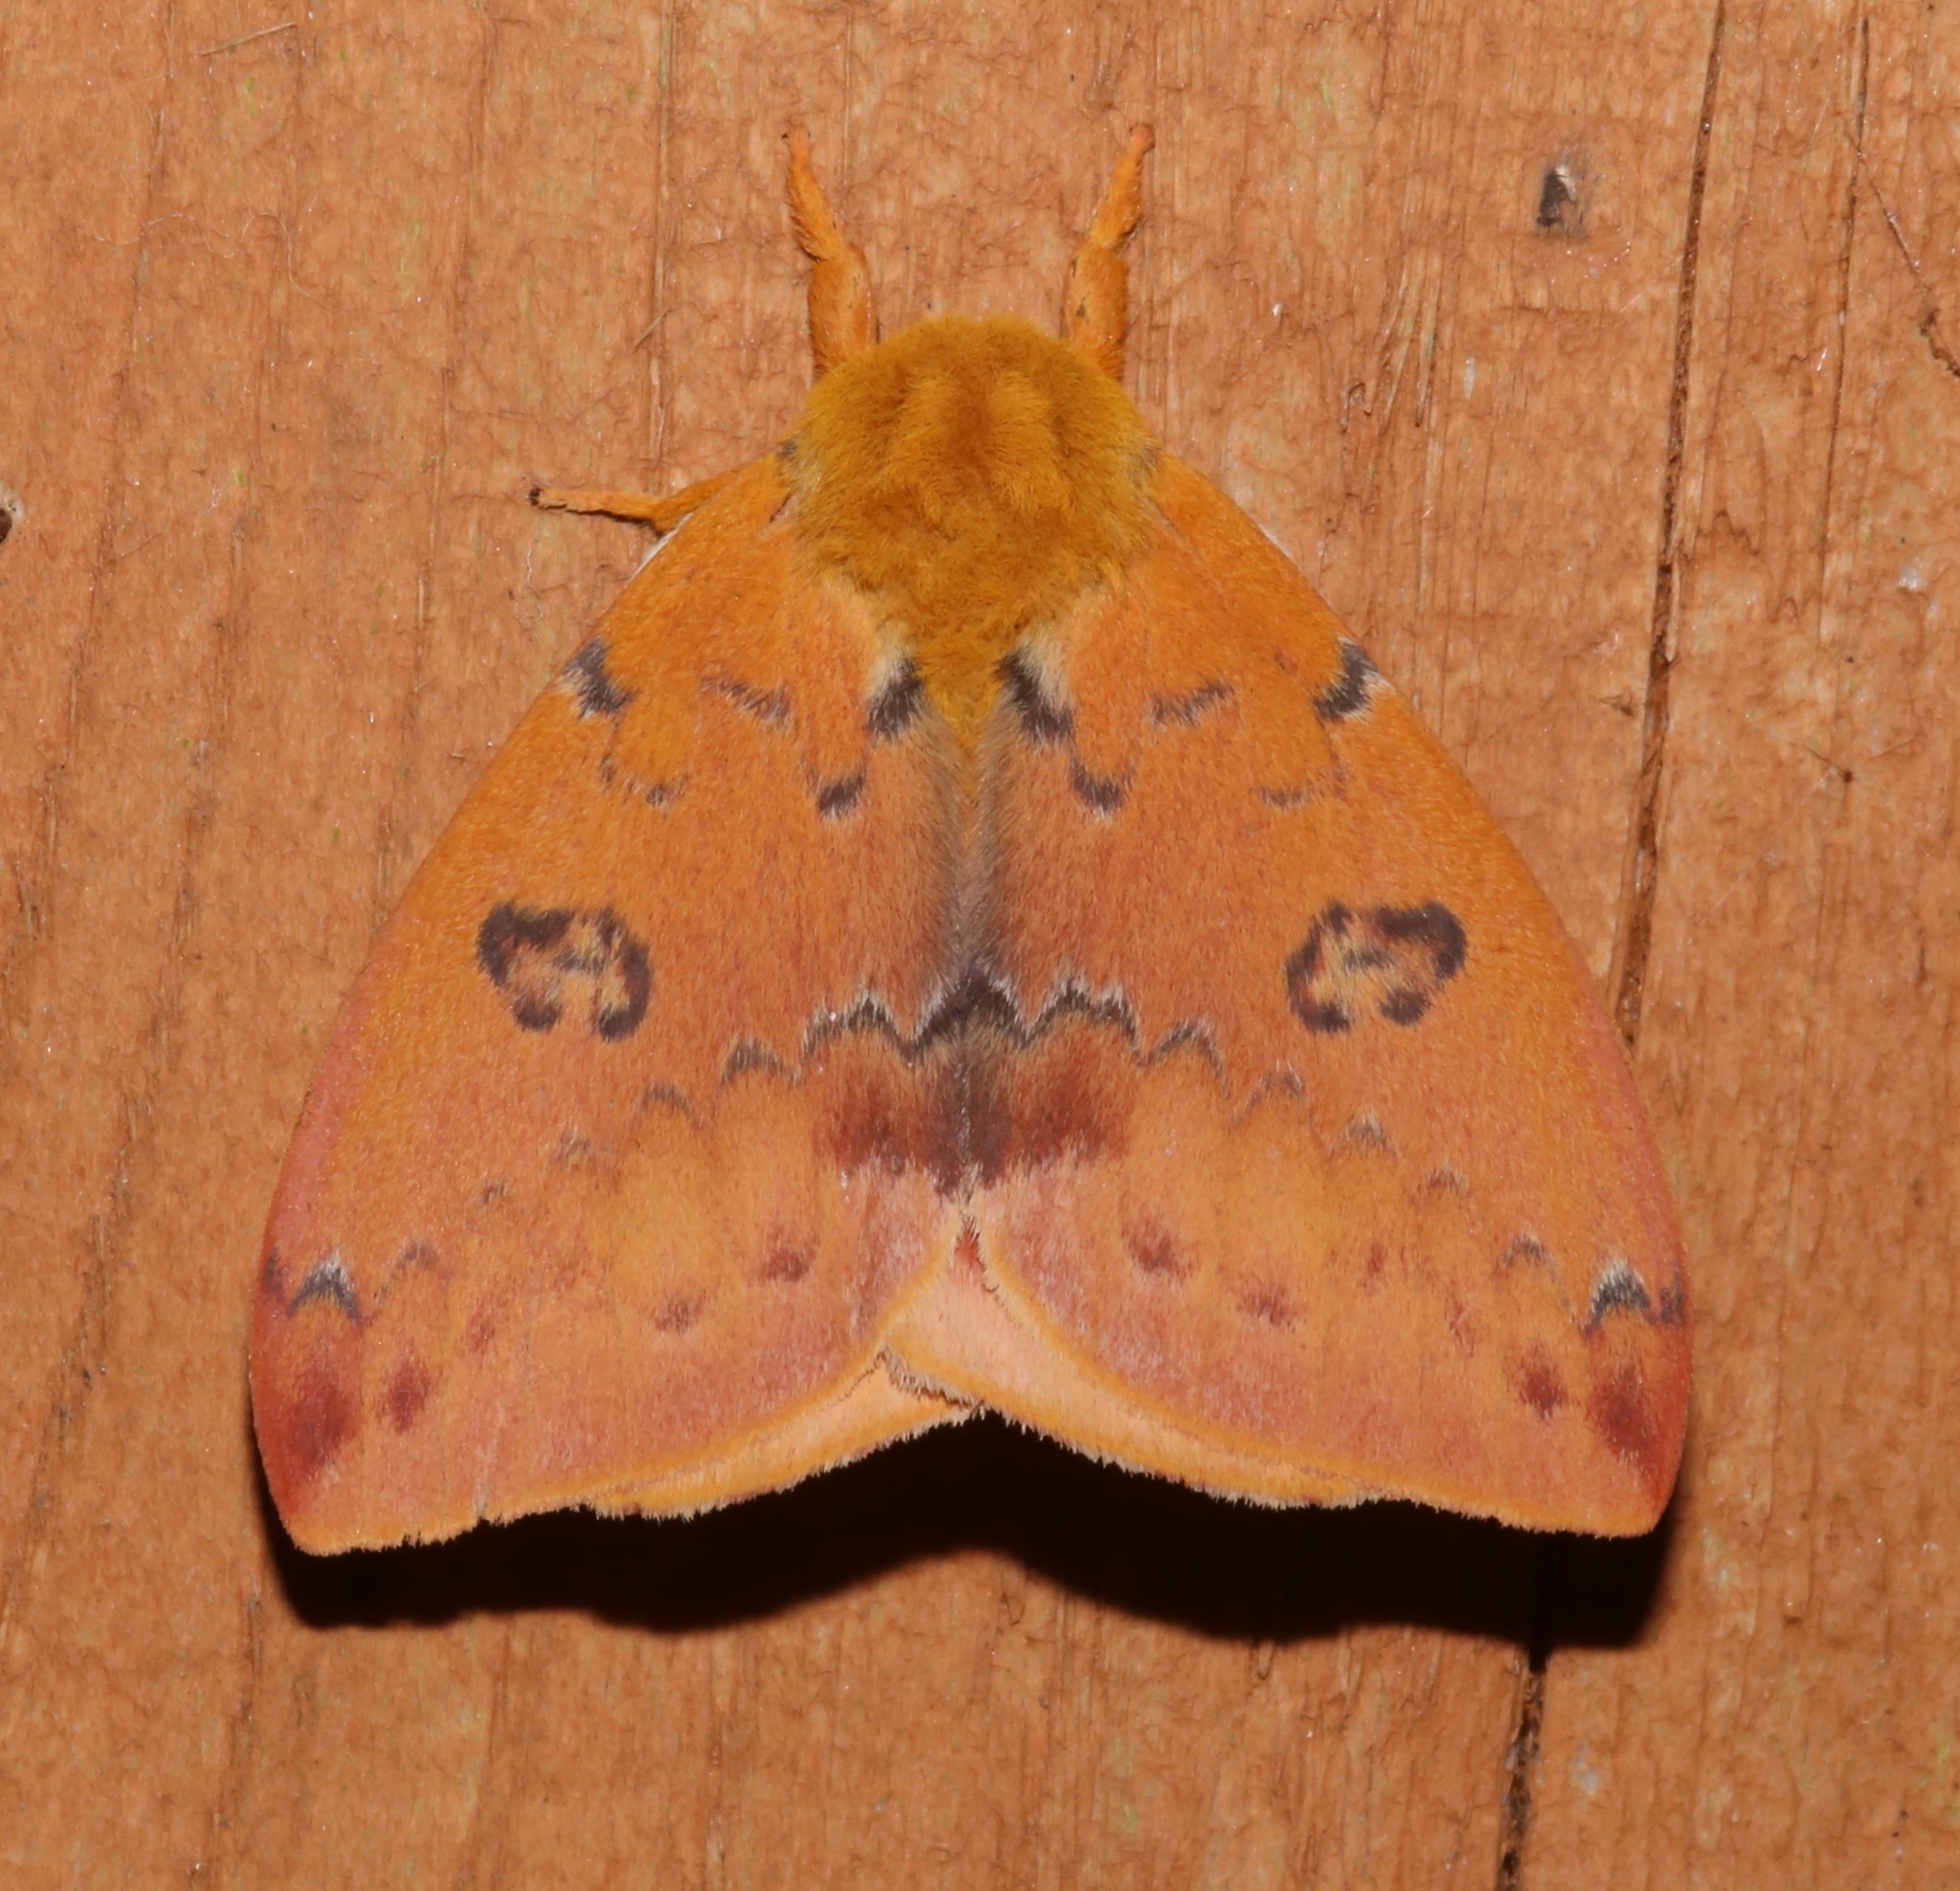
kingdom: Animalia
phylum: Arthropoda
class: Insecta
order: Lepidoptera
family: Saturniidae
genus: Automeris
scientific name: Automeris io
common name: Io moth
